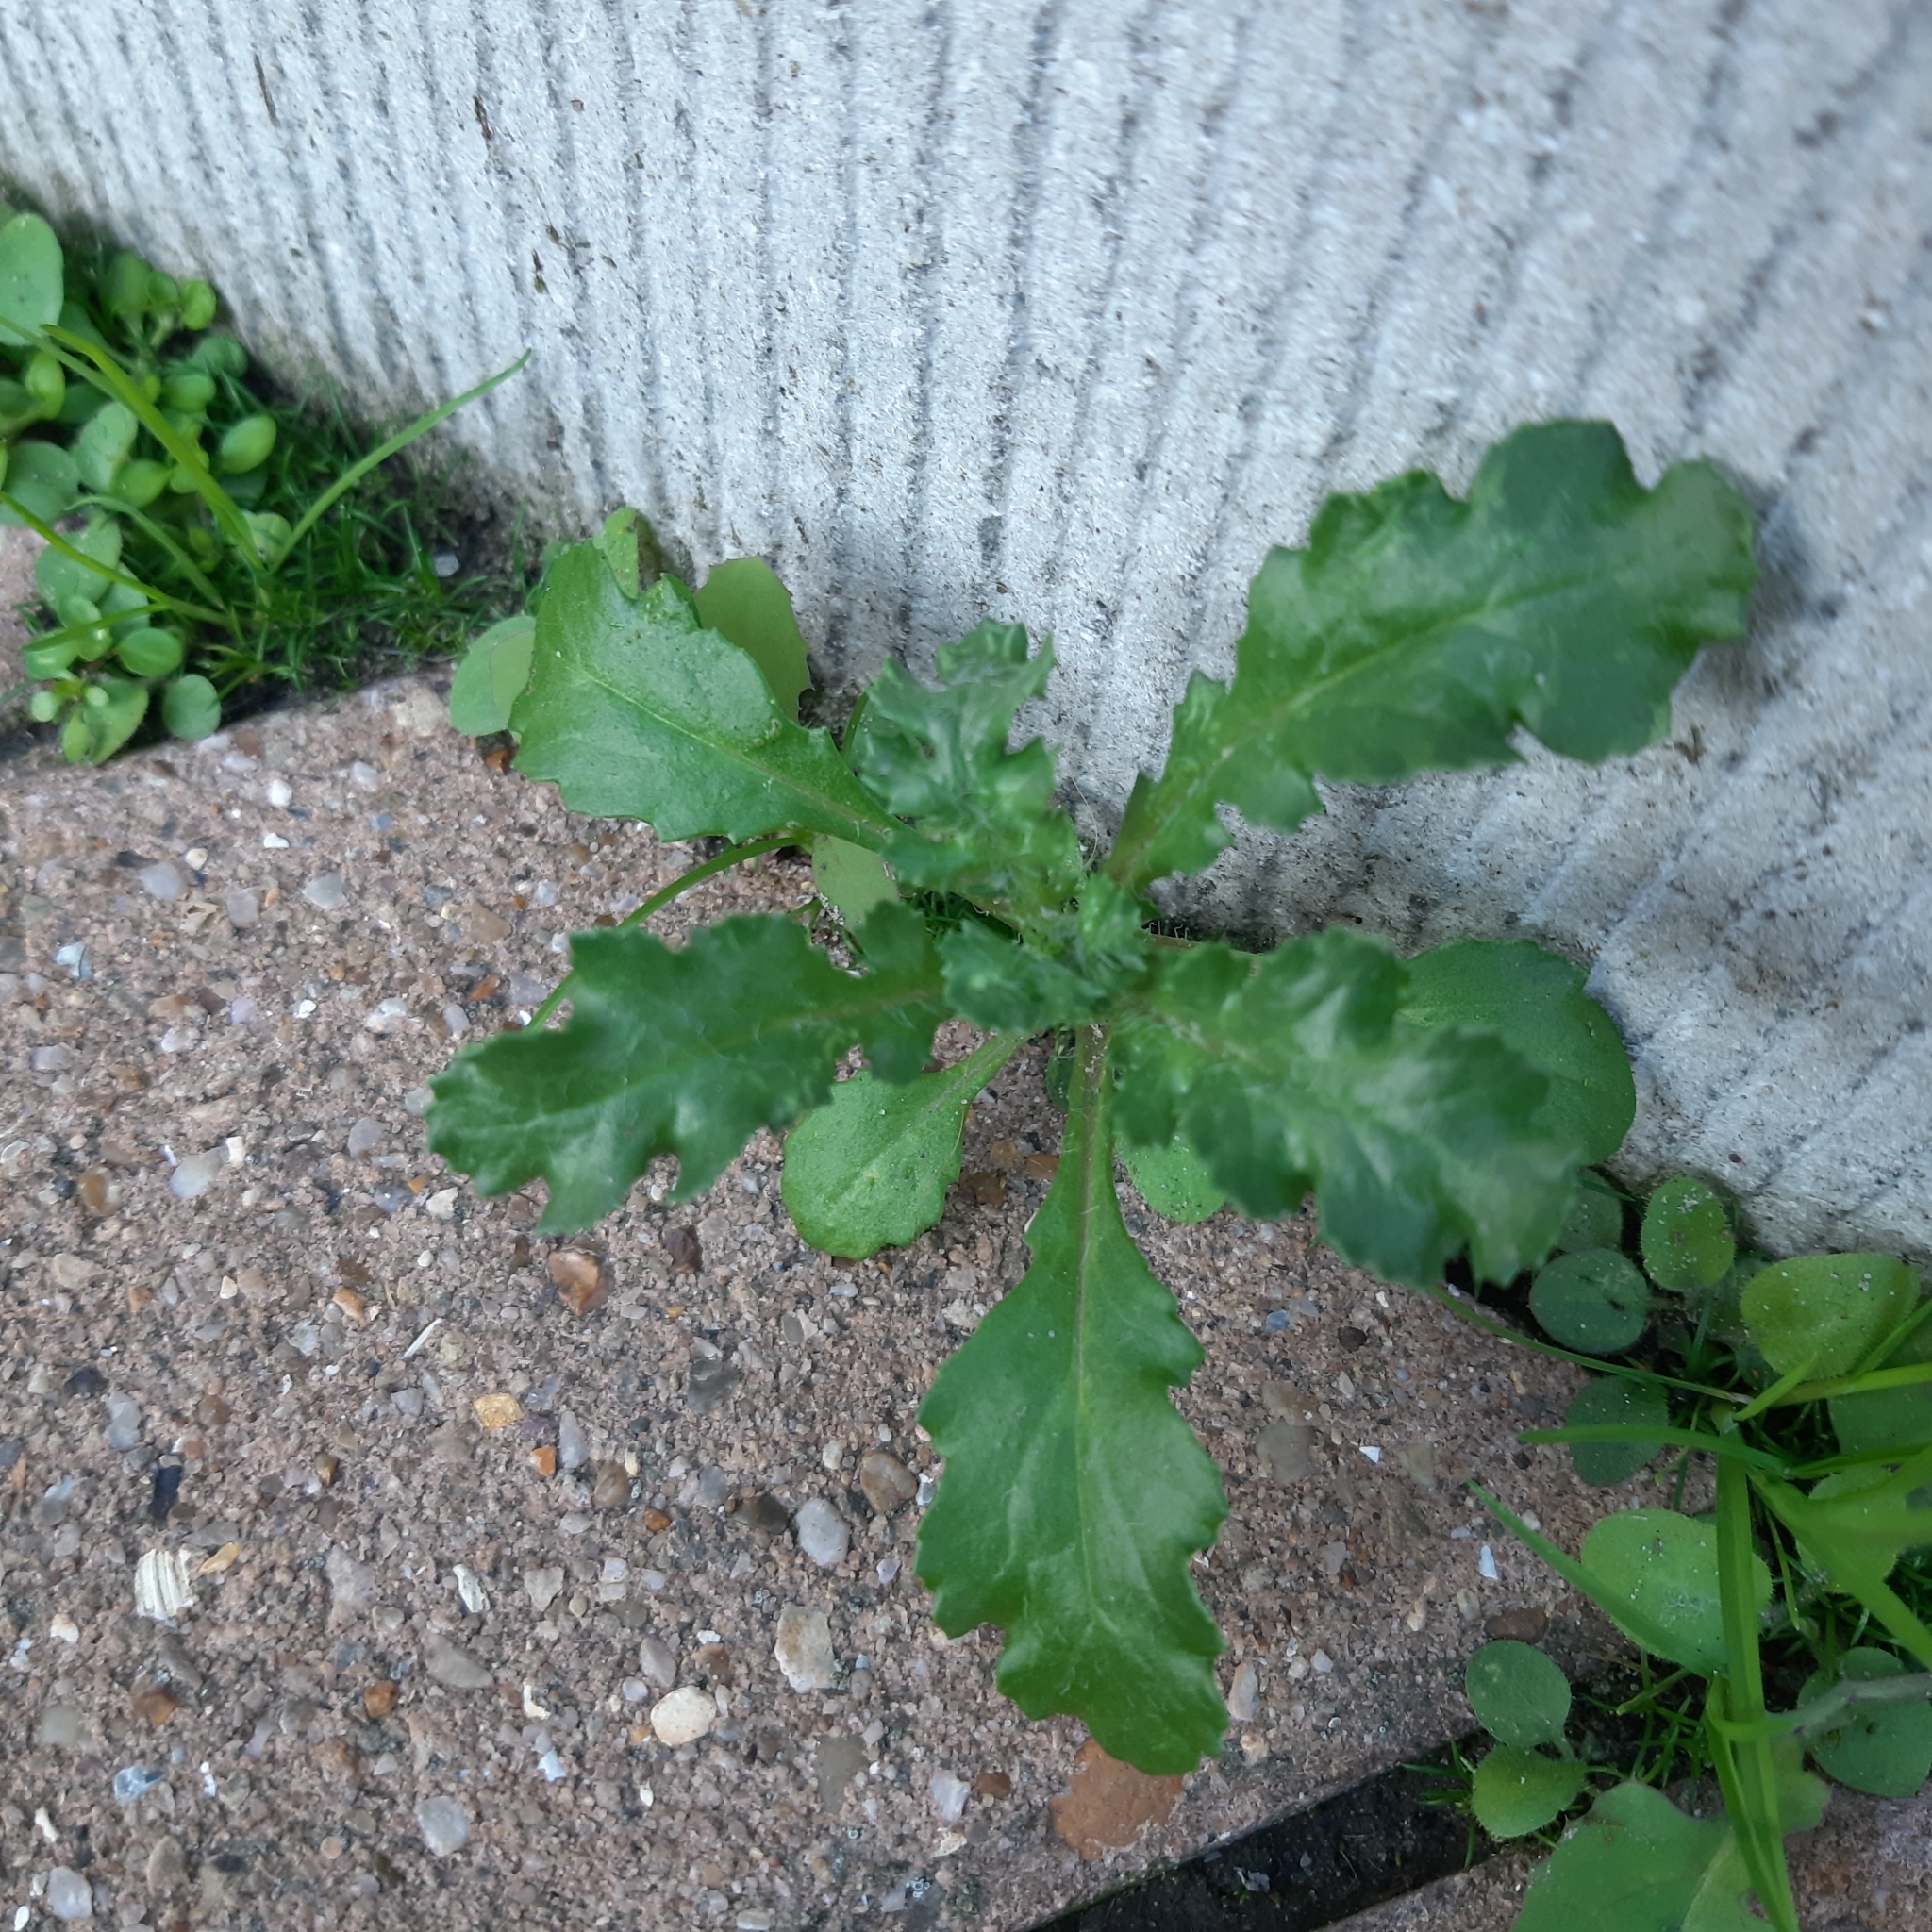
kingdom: Plantae
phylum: Tracheophyta
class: Magnoliopsida
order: Asterales
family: Asteraceae
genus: Senecio
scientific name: Senecio vulgaris
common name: Old-man-in-the-spring
